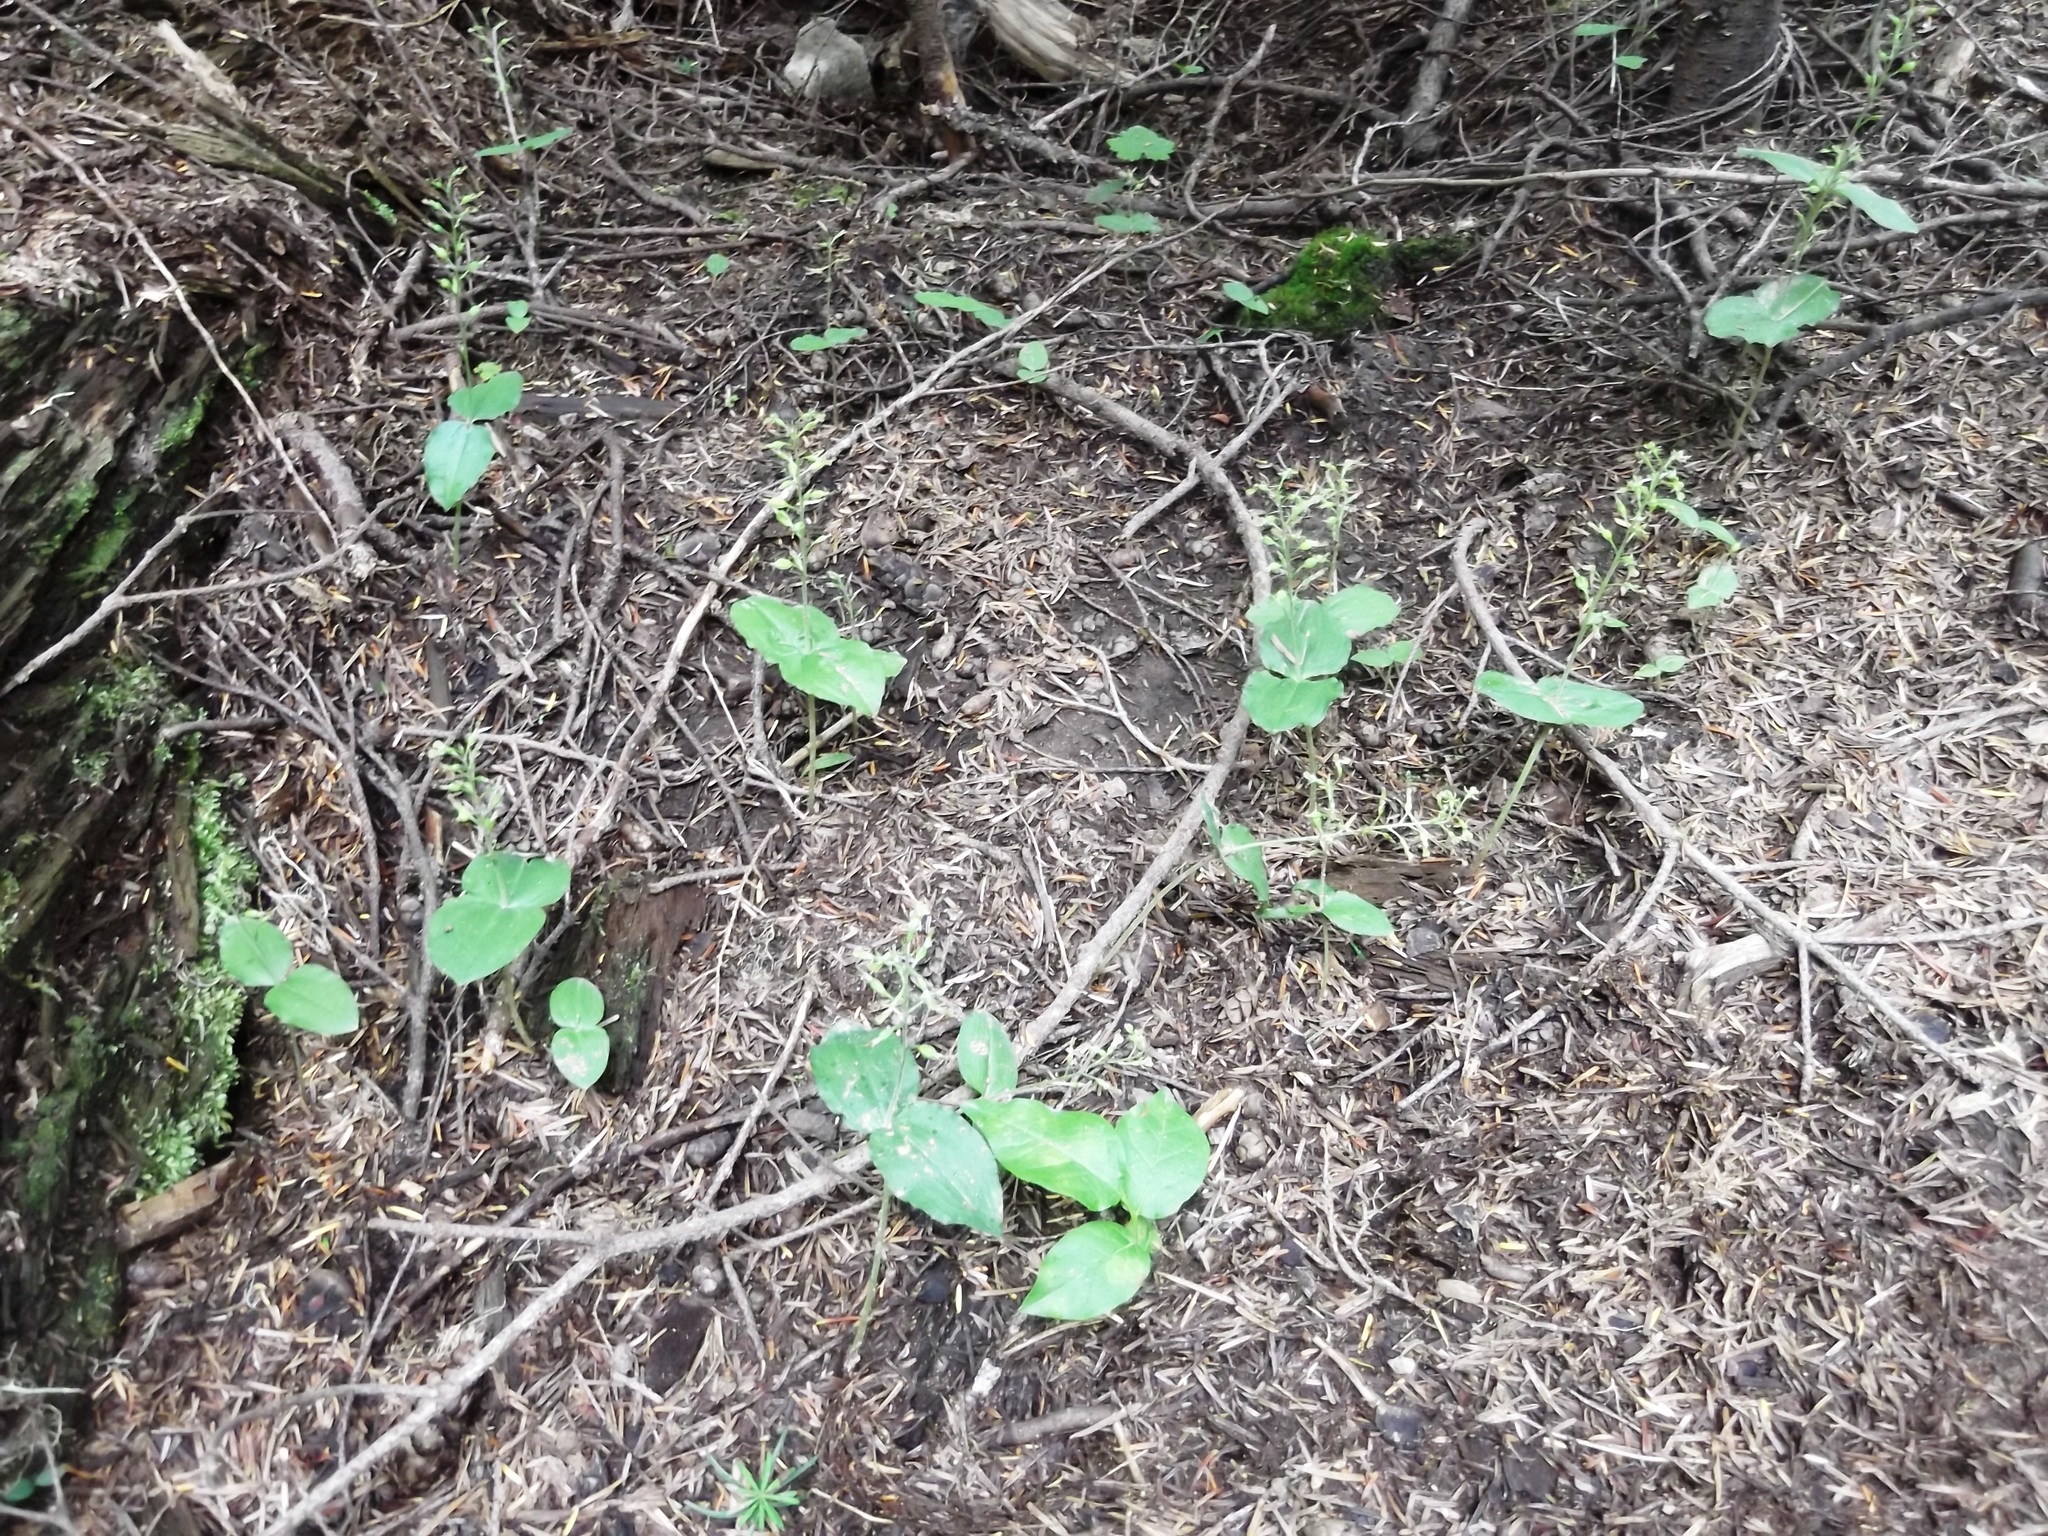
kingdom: Plantae
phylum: Tracheophyta
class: Liliopsida
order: Asparagales
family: Orchidaceae
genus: Neottia
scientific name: Neottia banksiana
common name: Northwestern twayblade
